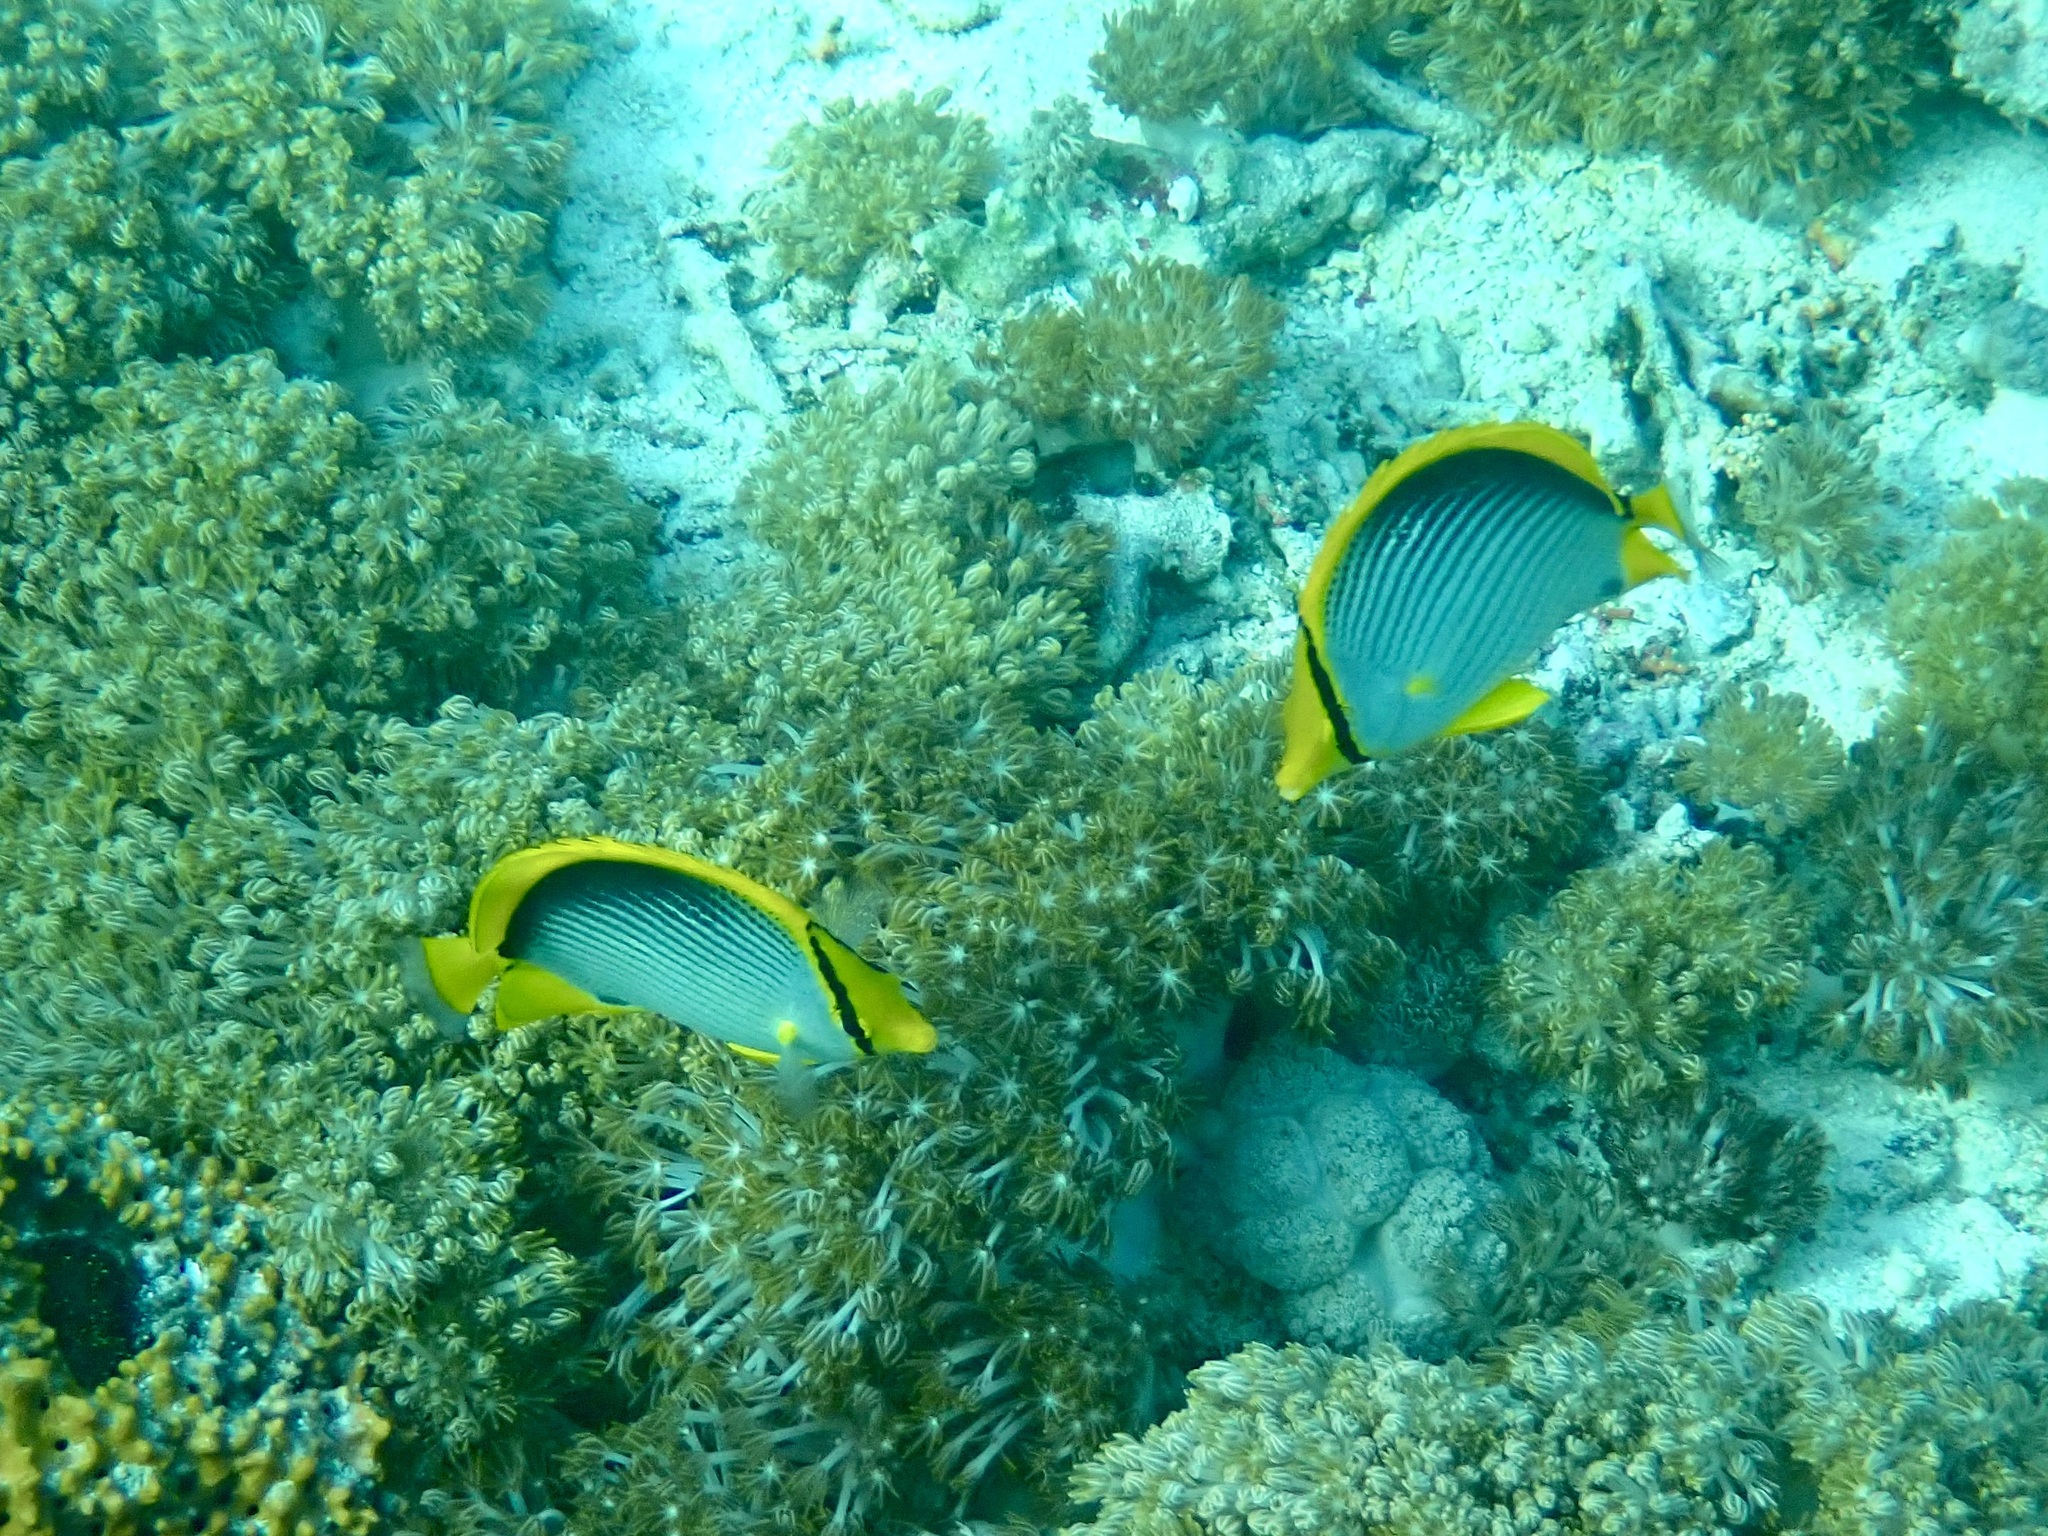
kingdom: Animalia
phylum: Chordata
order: Perciformes
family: Chaetodontidae
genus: Chaetodon
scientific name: Chaetodon melannotus
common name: Blackback butterflyfish
